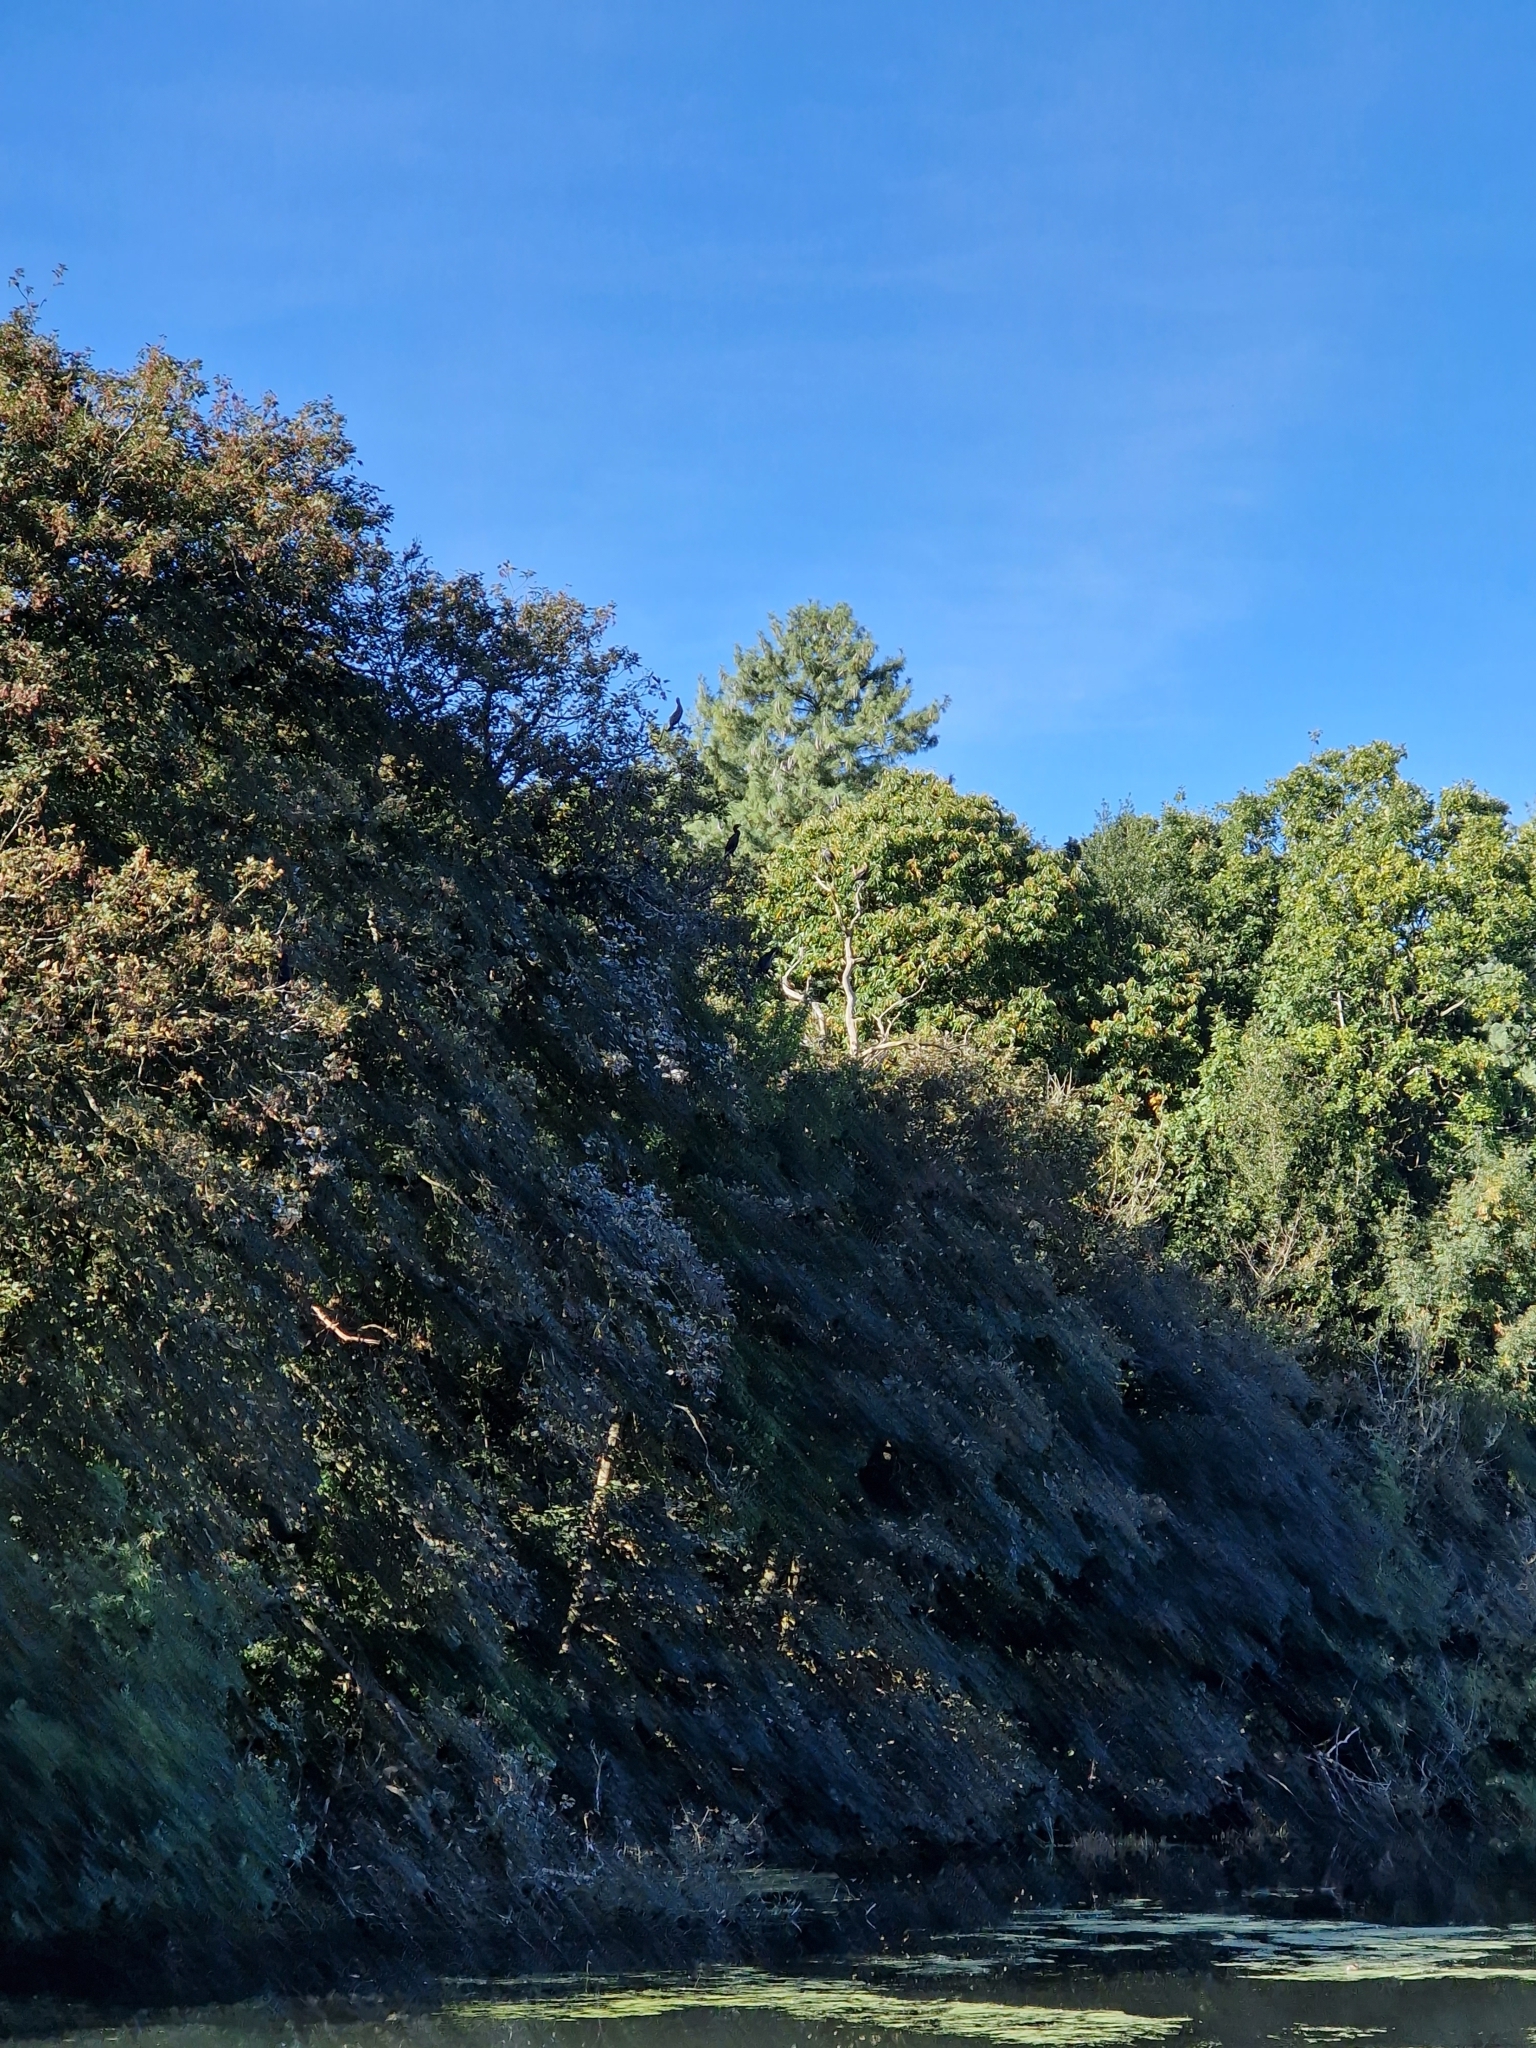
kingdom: Animalia
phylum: Chordata
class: Aves
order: Suliformes
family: Phalacrocoracidae
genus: Phalacrocorax
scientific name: Phalacrocorax carbo
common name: Great cormorant
